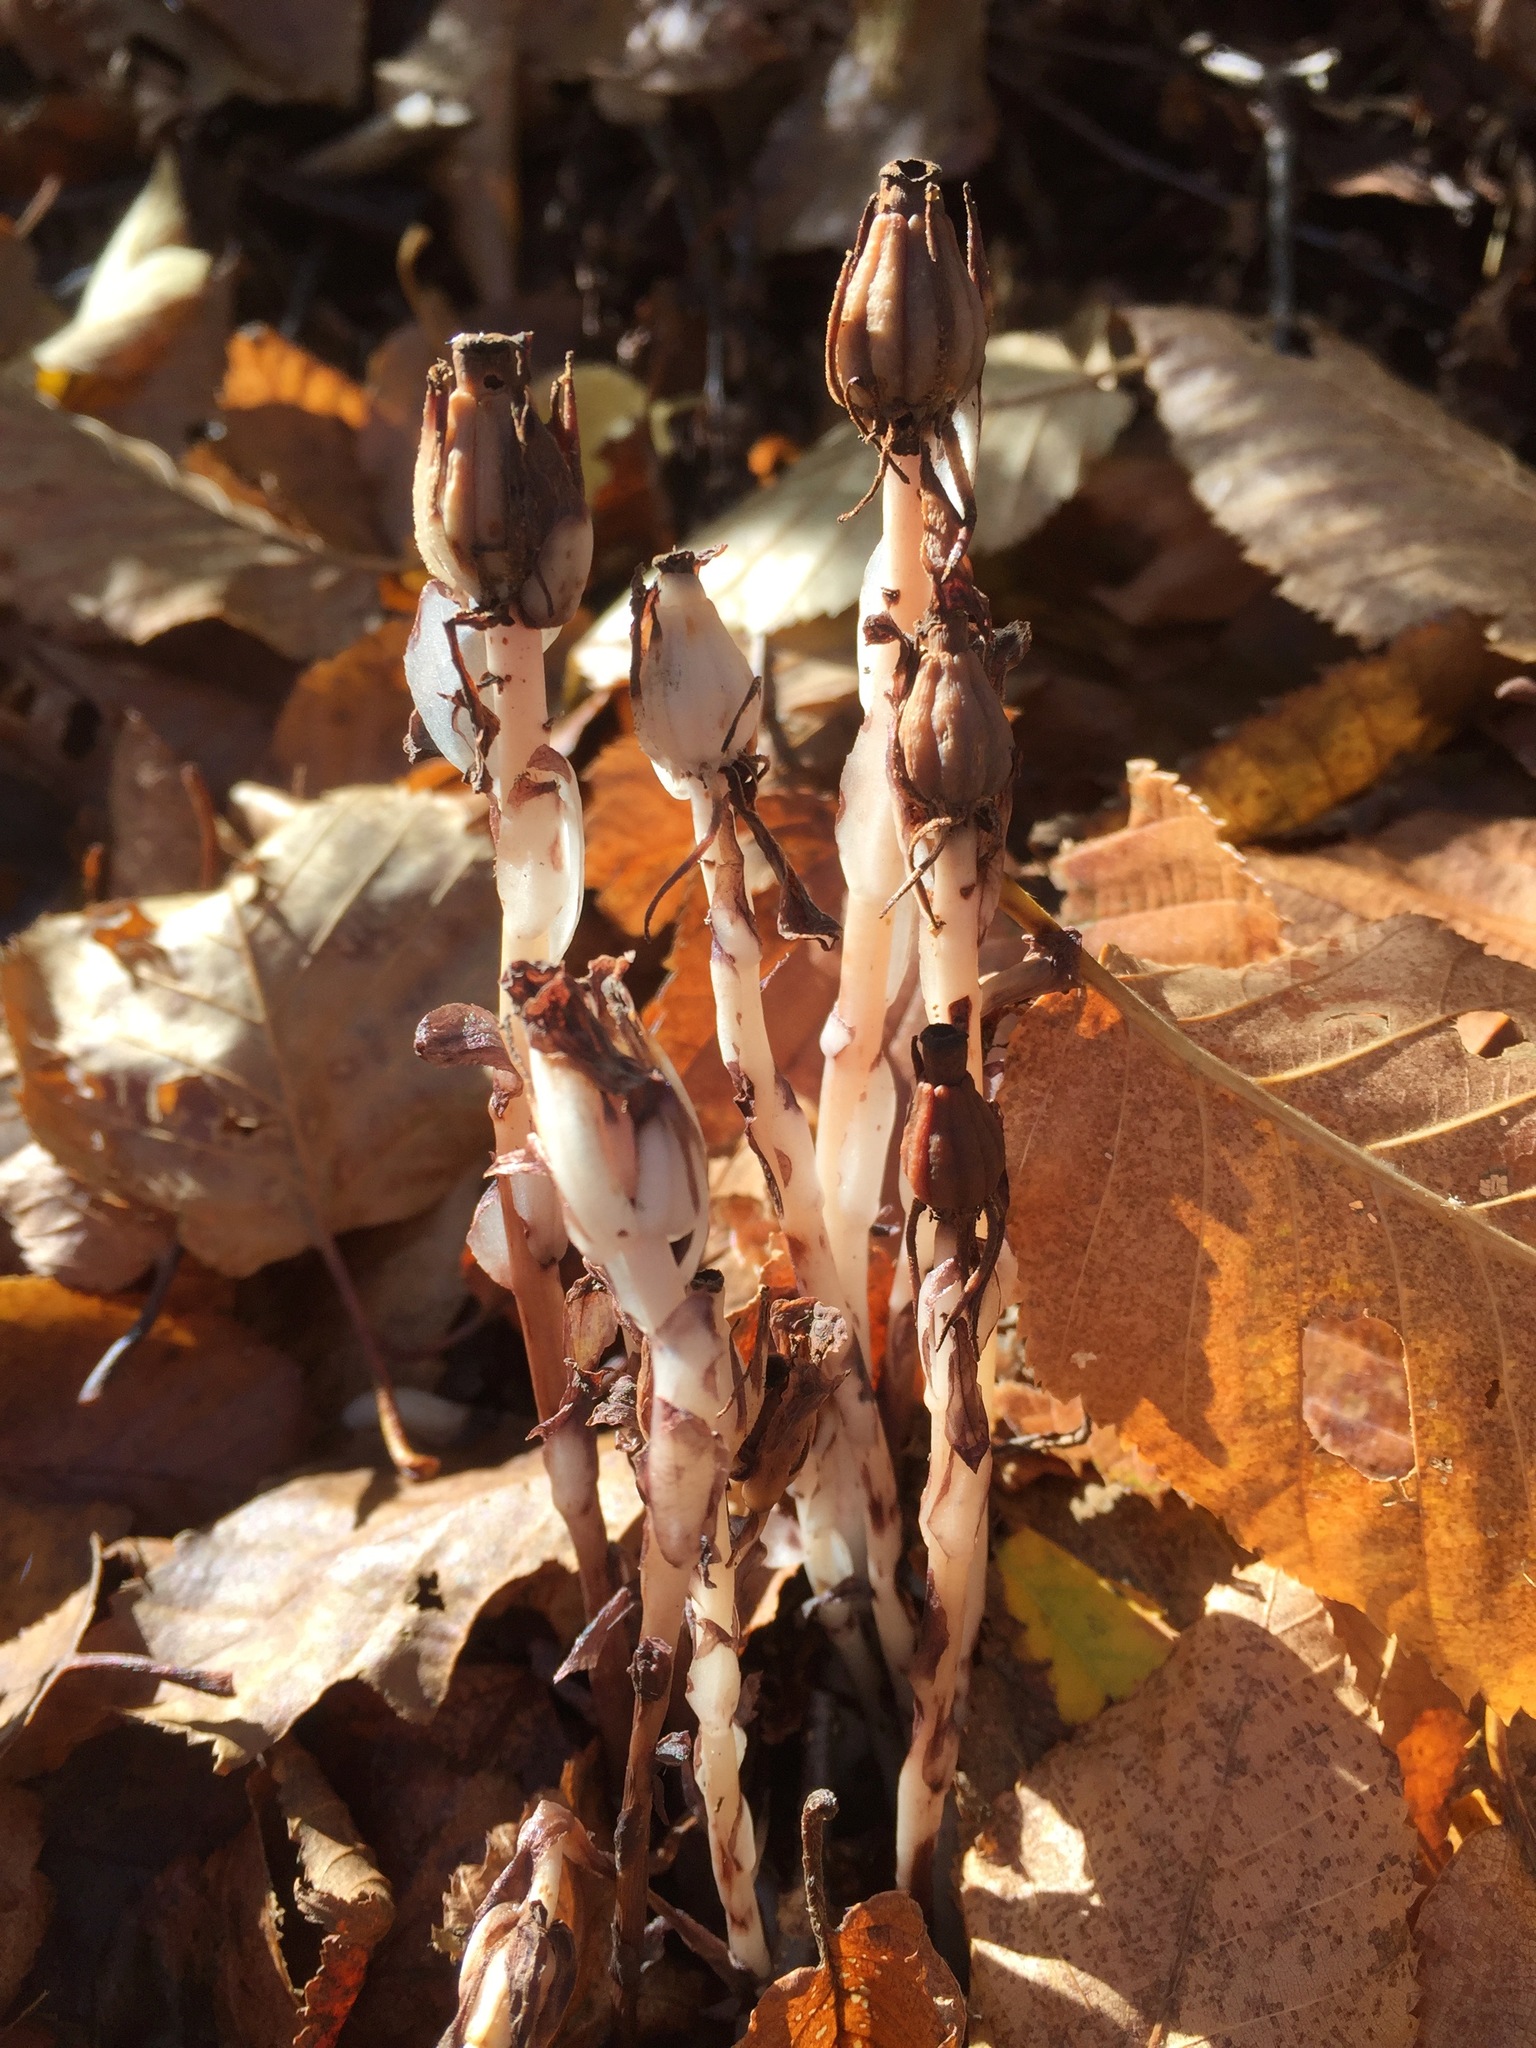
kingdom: Plantae
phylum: Tracheophyta
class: Magnoliopsida
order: Ericales
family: Ericaceae
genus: Monotropa
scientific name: Monotropa uniflora
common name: Convulsion root
